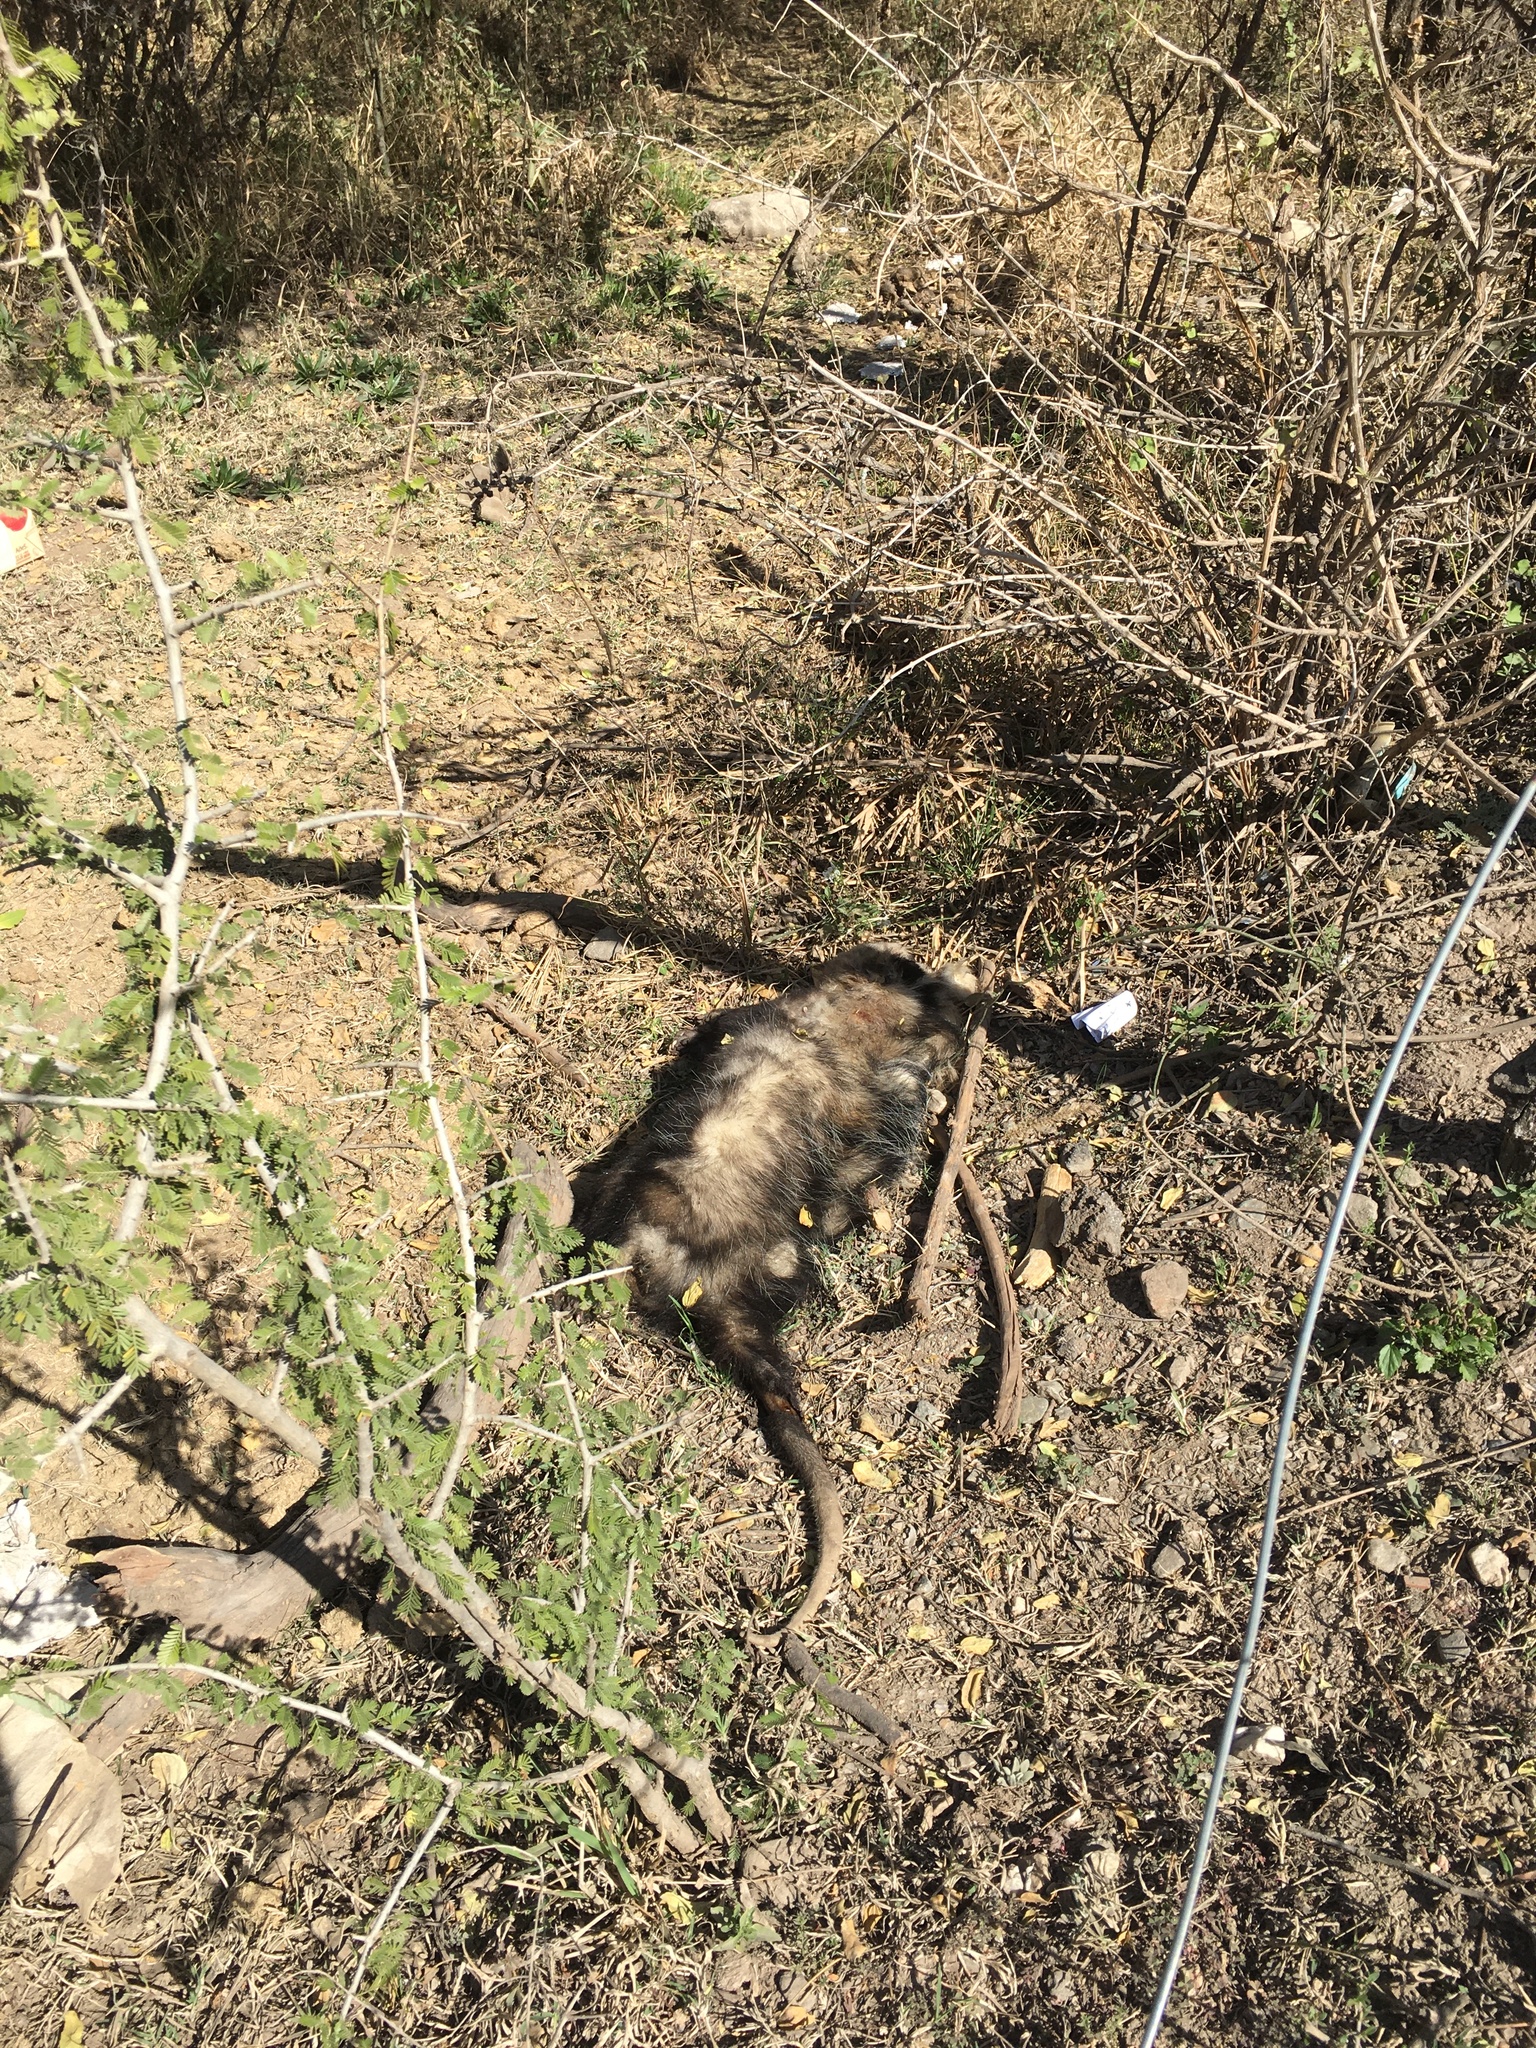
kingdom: Animalia
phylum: Chordata
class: Mammalia
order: Didelphimorphia
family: Didelphidae
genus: Didelphis
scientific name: Didelphis albiventris
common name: White-eared opossum
